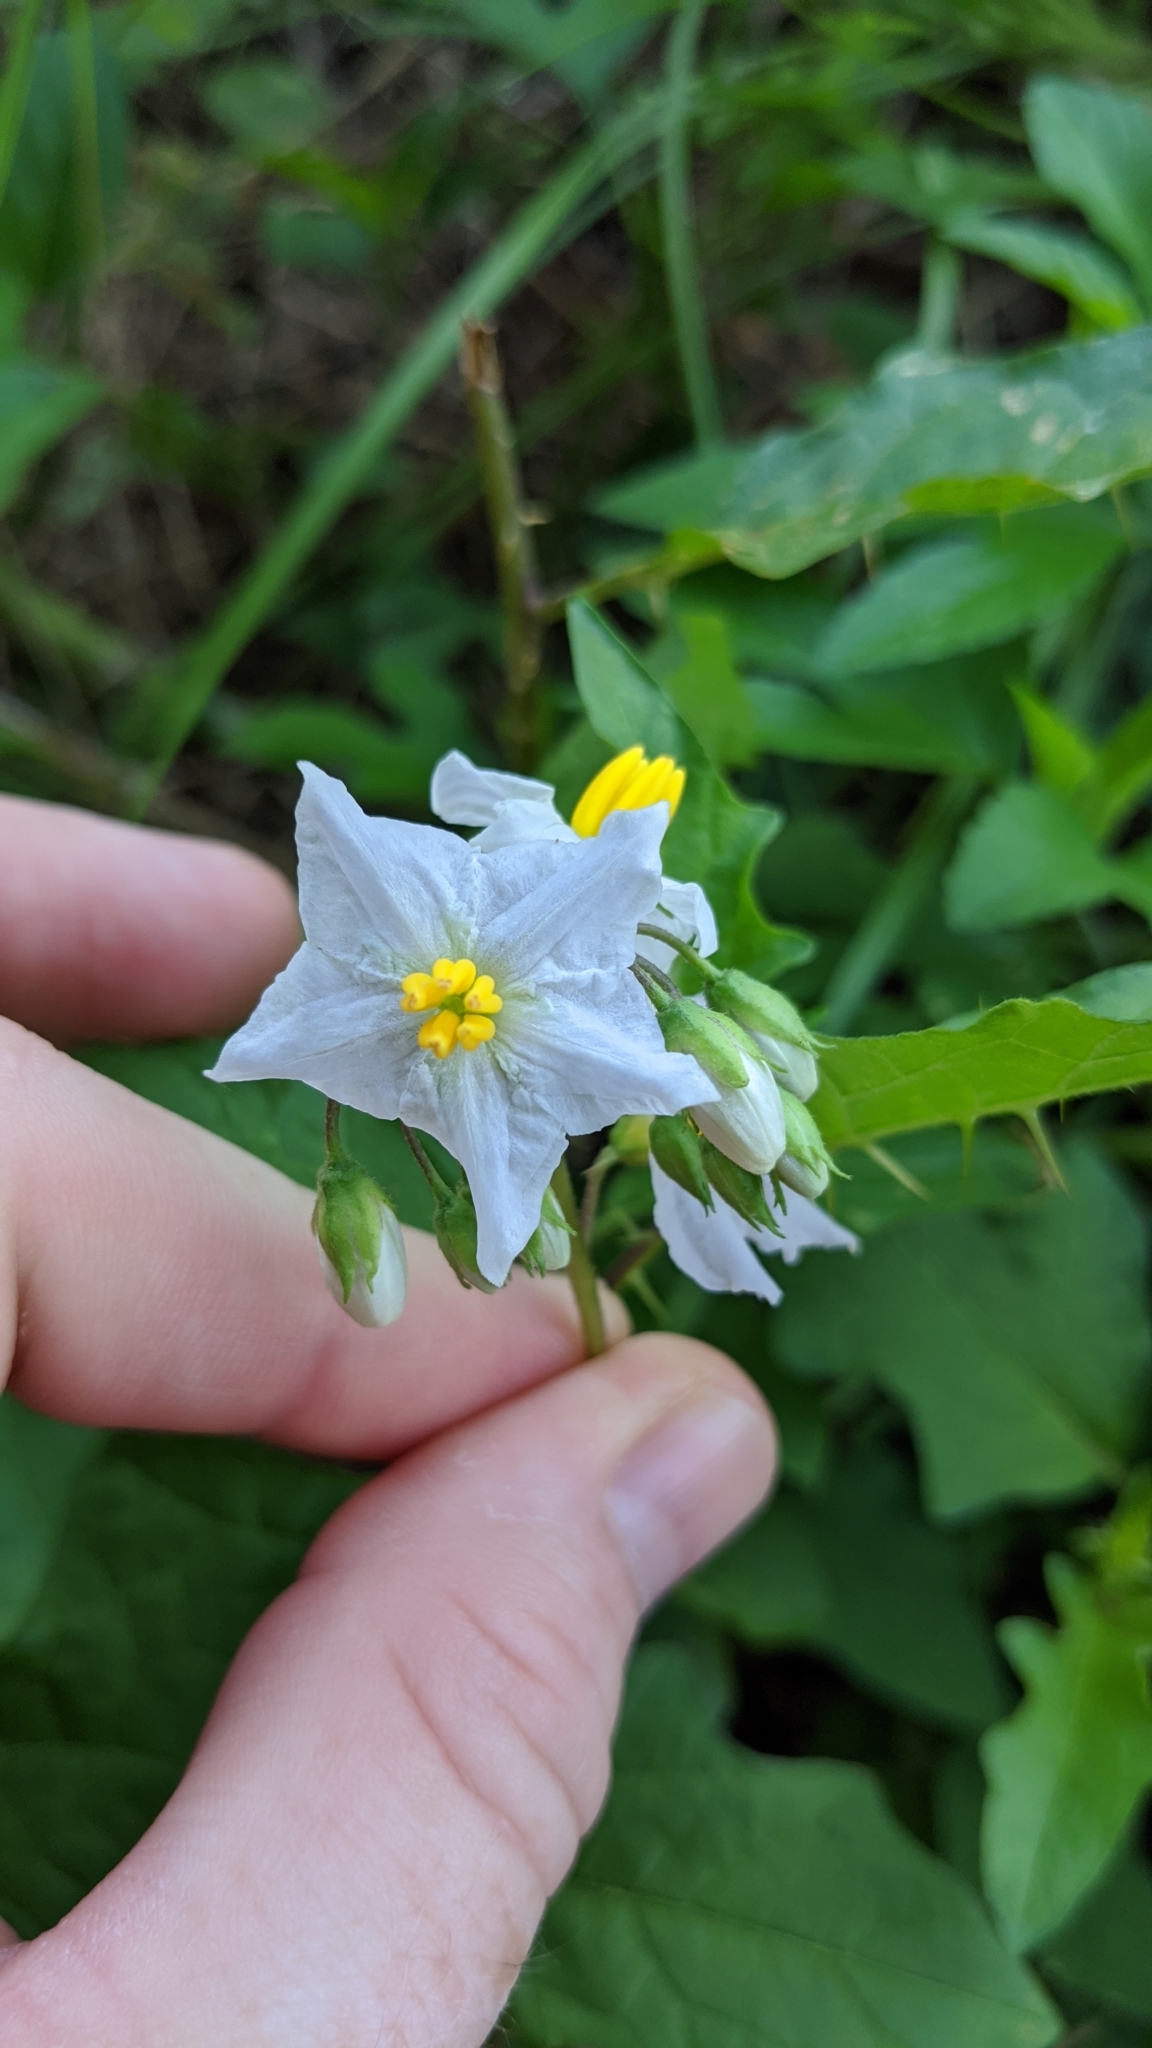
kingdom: Plantae
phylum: Tracheophyta
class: Magnoliopsida
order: Solanales
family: Solanaceae
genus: Solanum
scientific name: Solanum carolinense
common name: Horse-nettle
